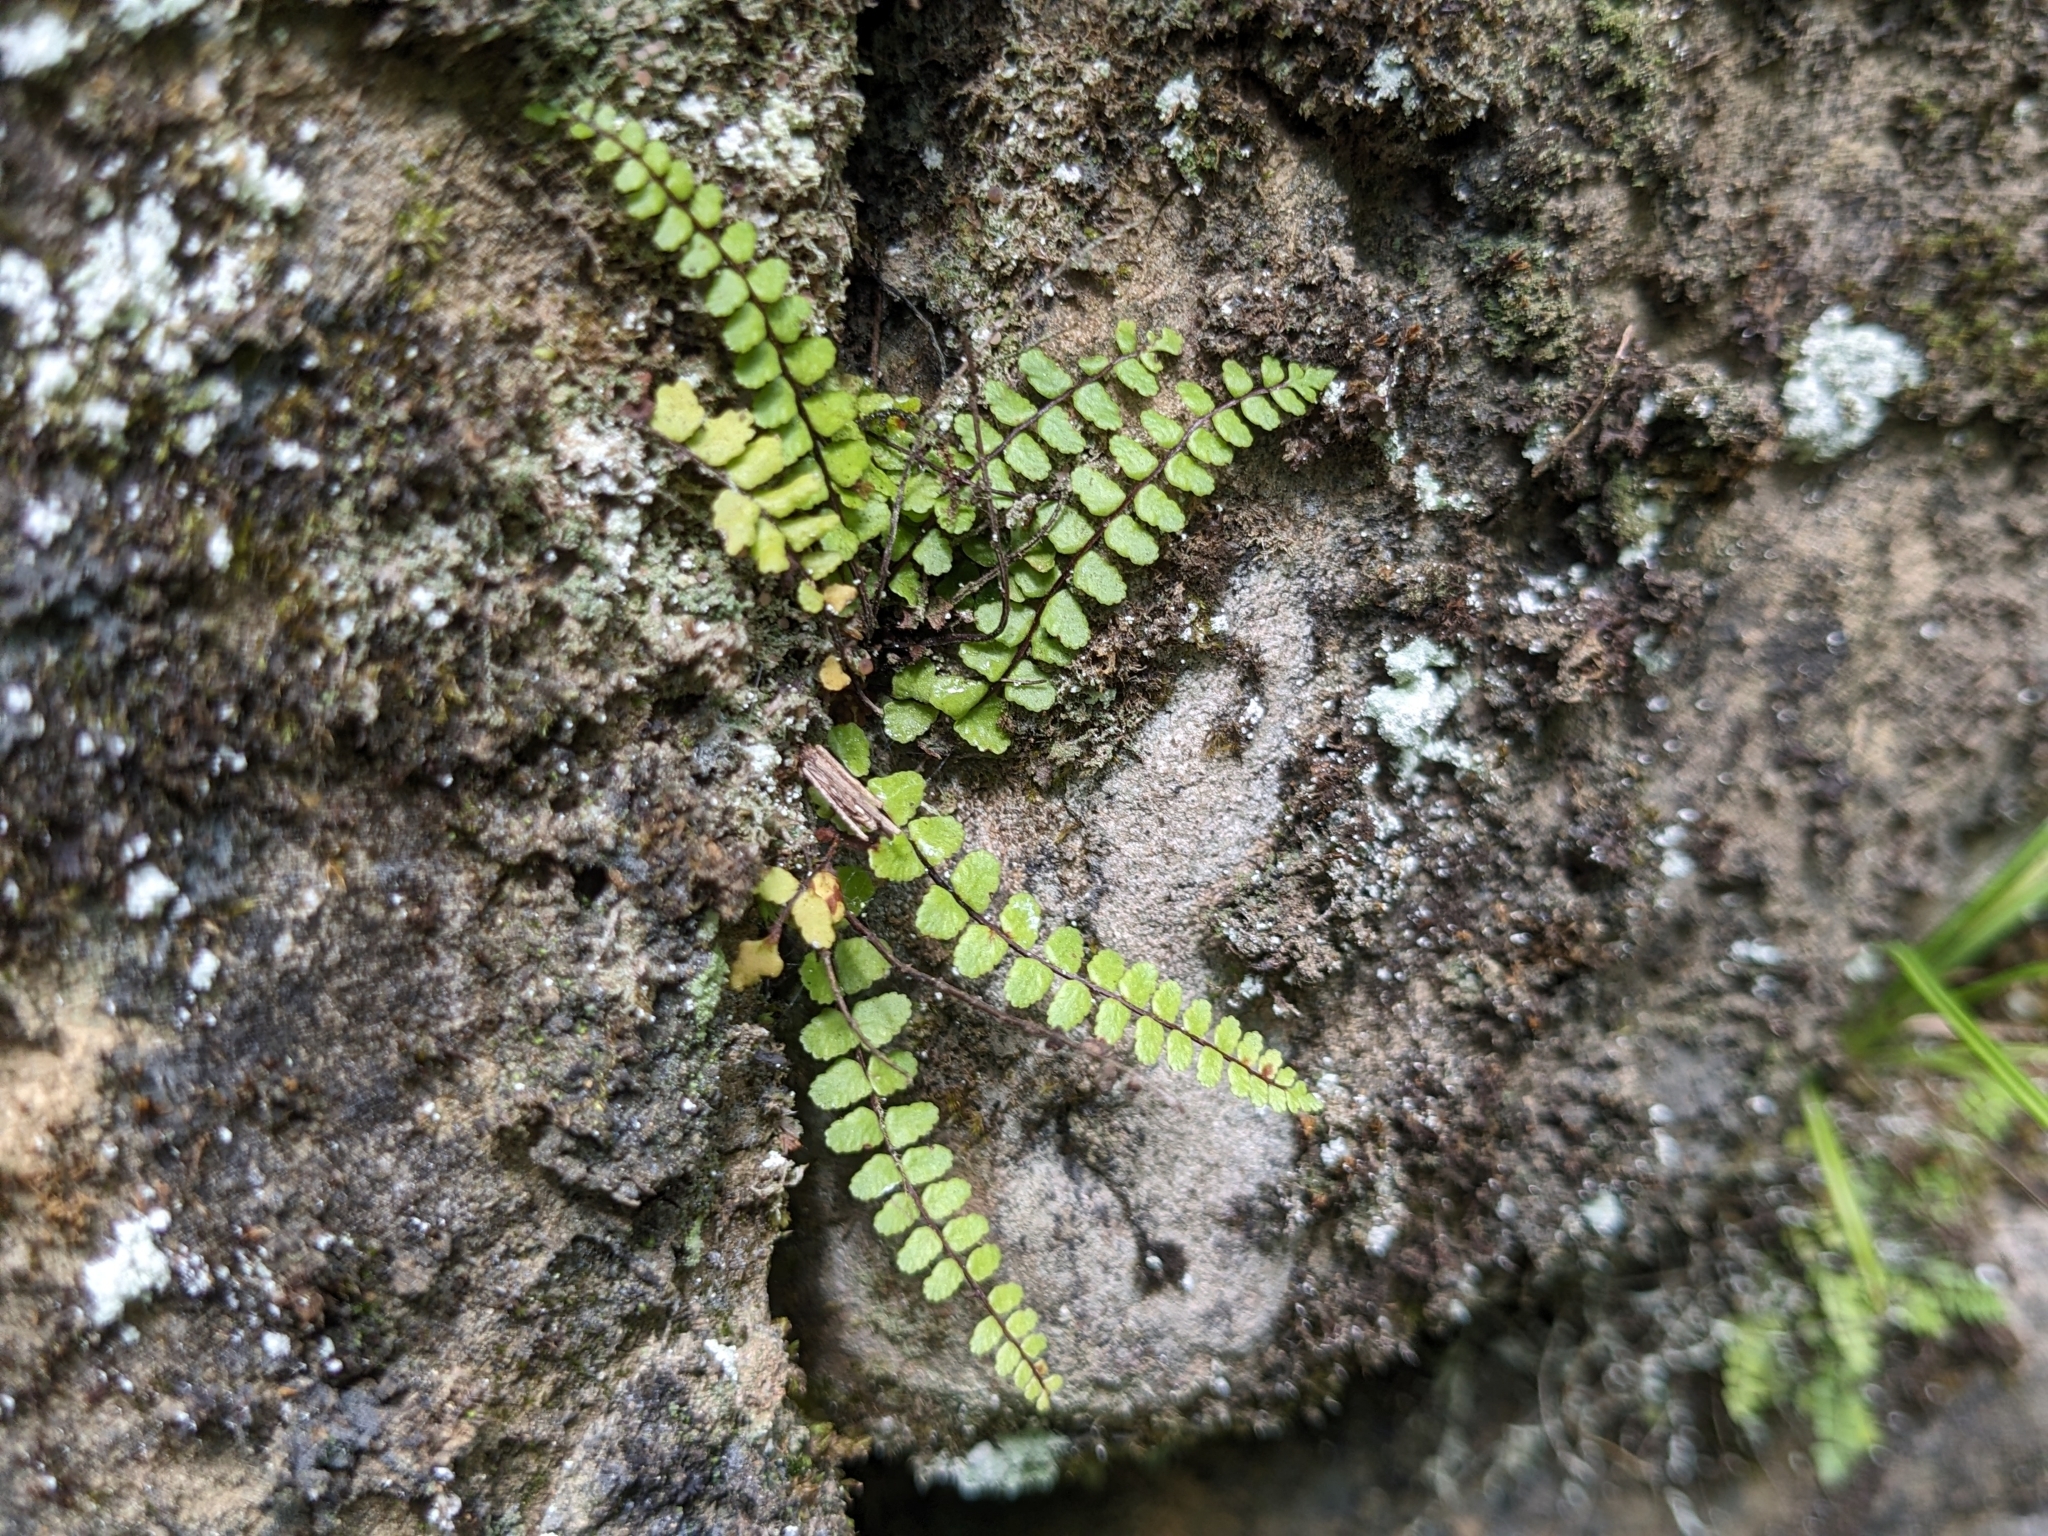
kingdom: Plantae
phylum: Tracheophyta
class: Polypodiopsida
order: Polypodiales
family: Aspleniaceae
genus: Asplenium
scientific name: Asplenium trichomanes
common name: Maidenhair spleenwort
